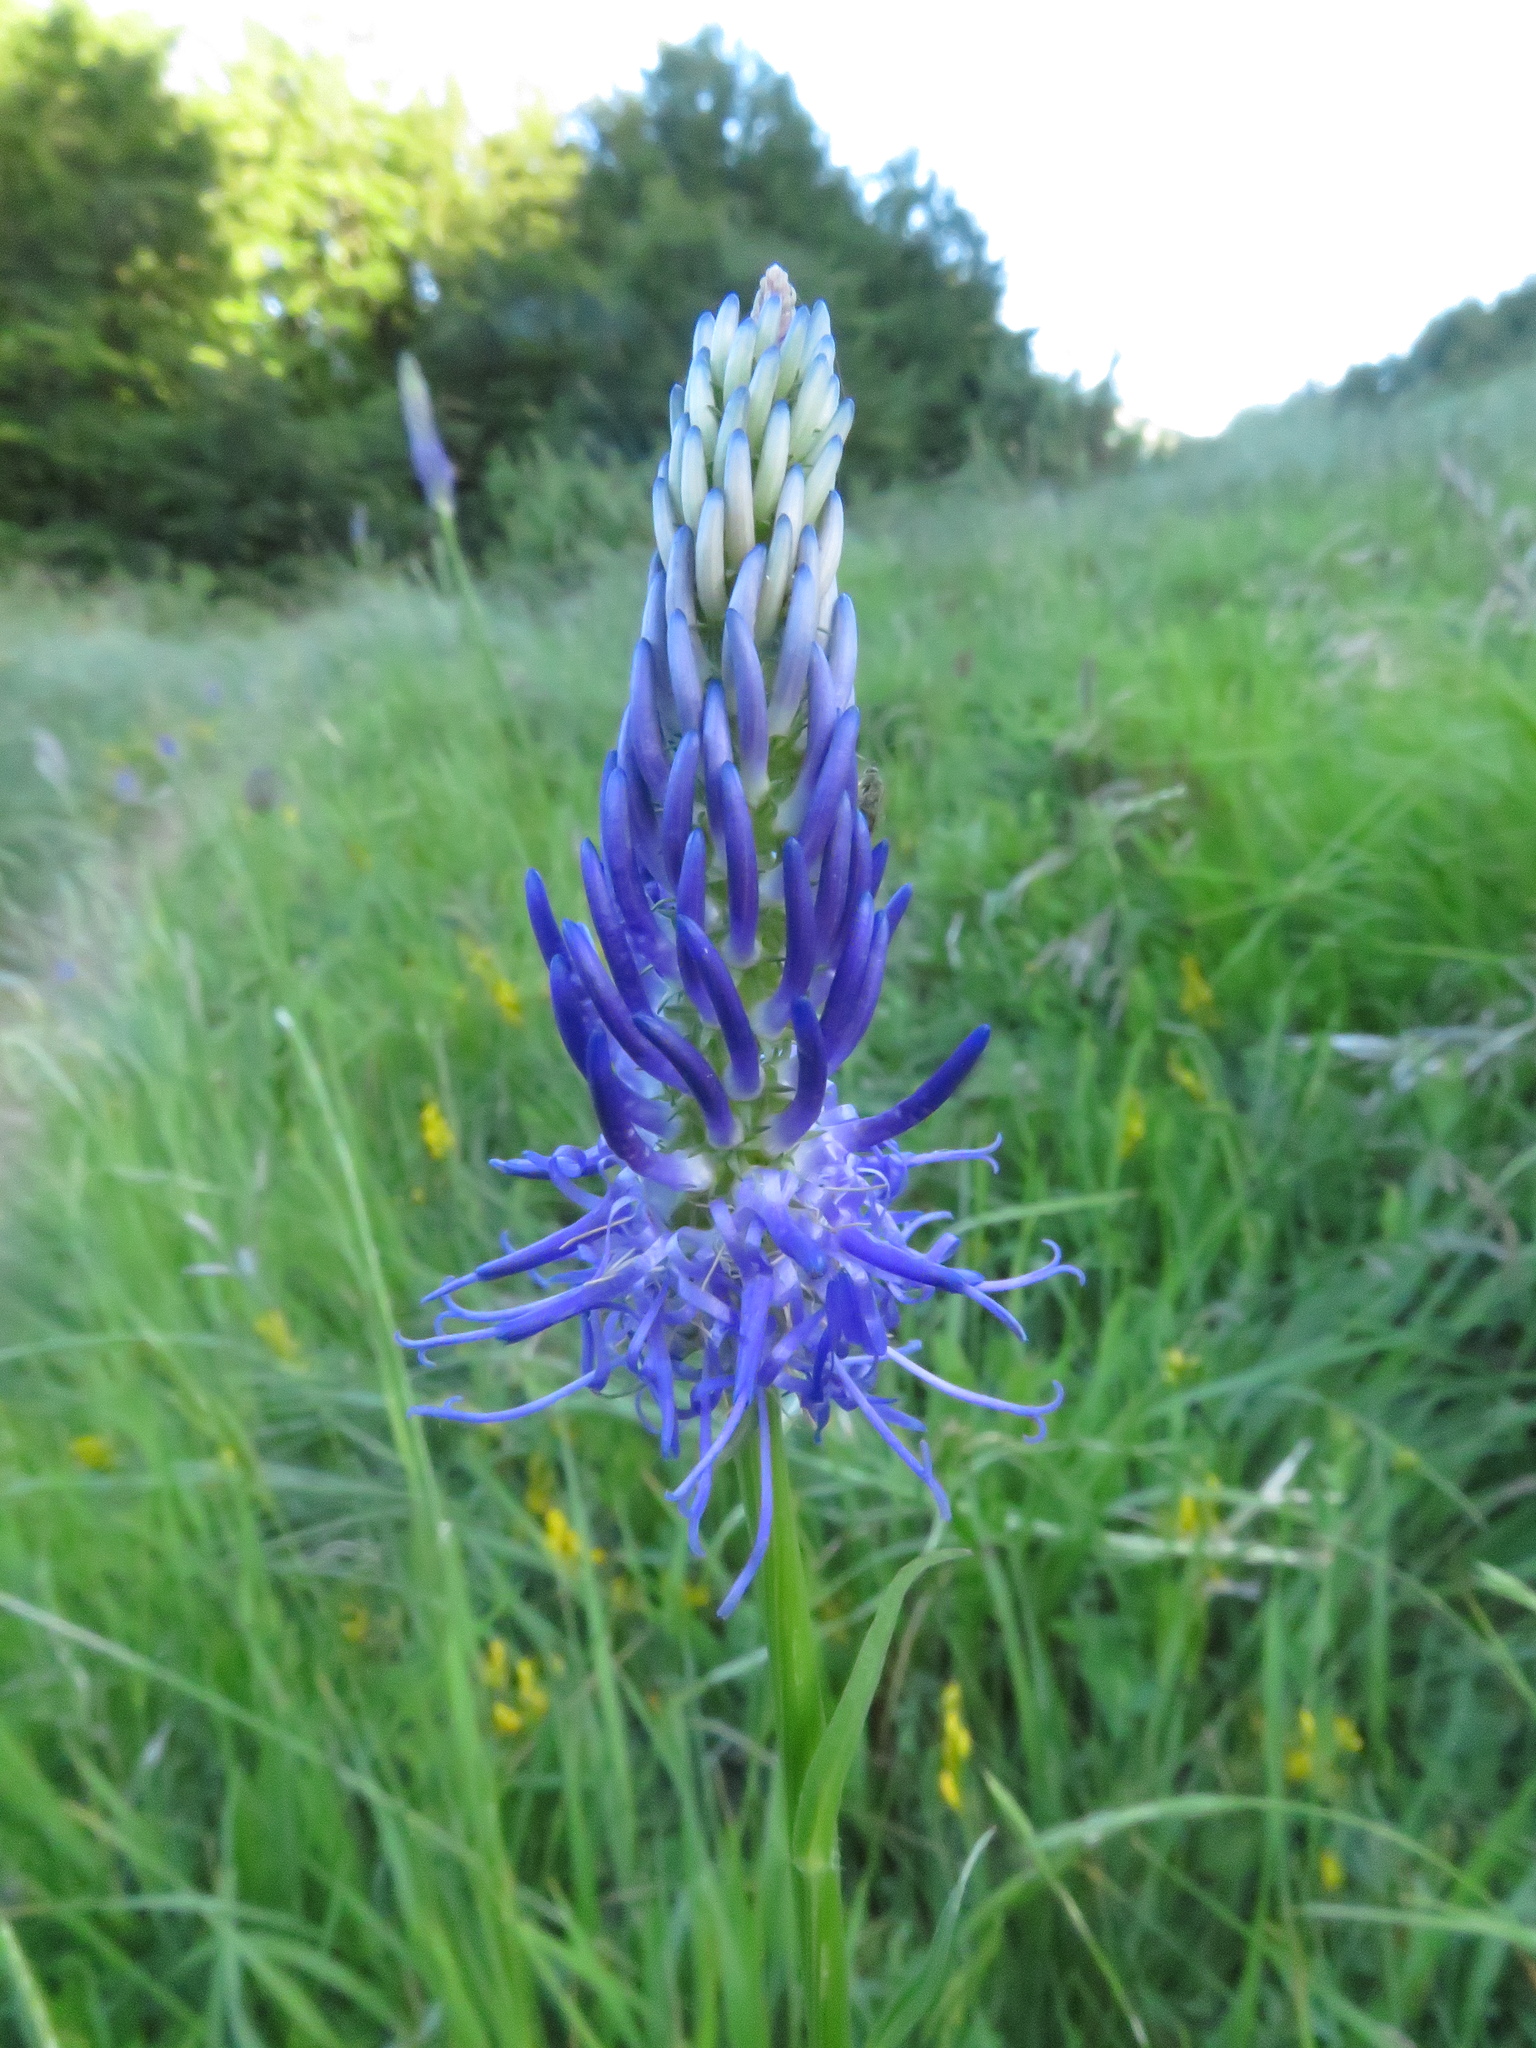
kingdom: Plantae
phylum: Tracheophyta
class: Magnoliopsida
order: Asterales
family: Campanulaceae
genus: Phyteuma
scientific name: Phyteuma scorzonerifolium
